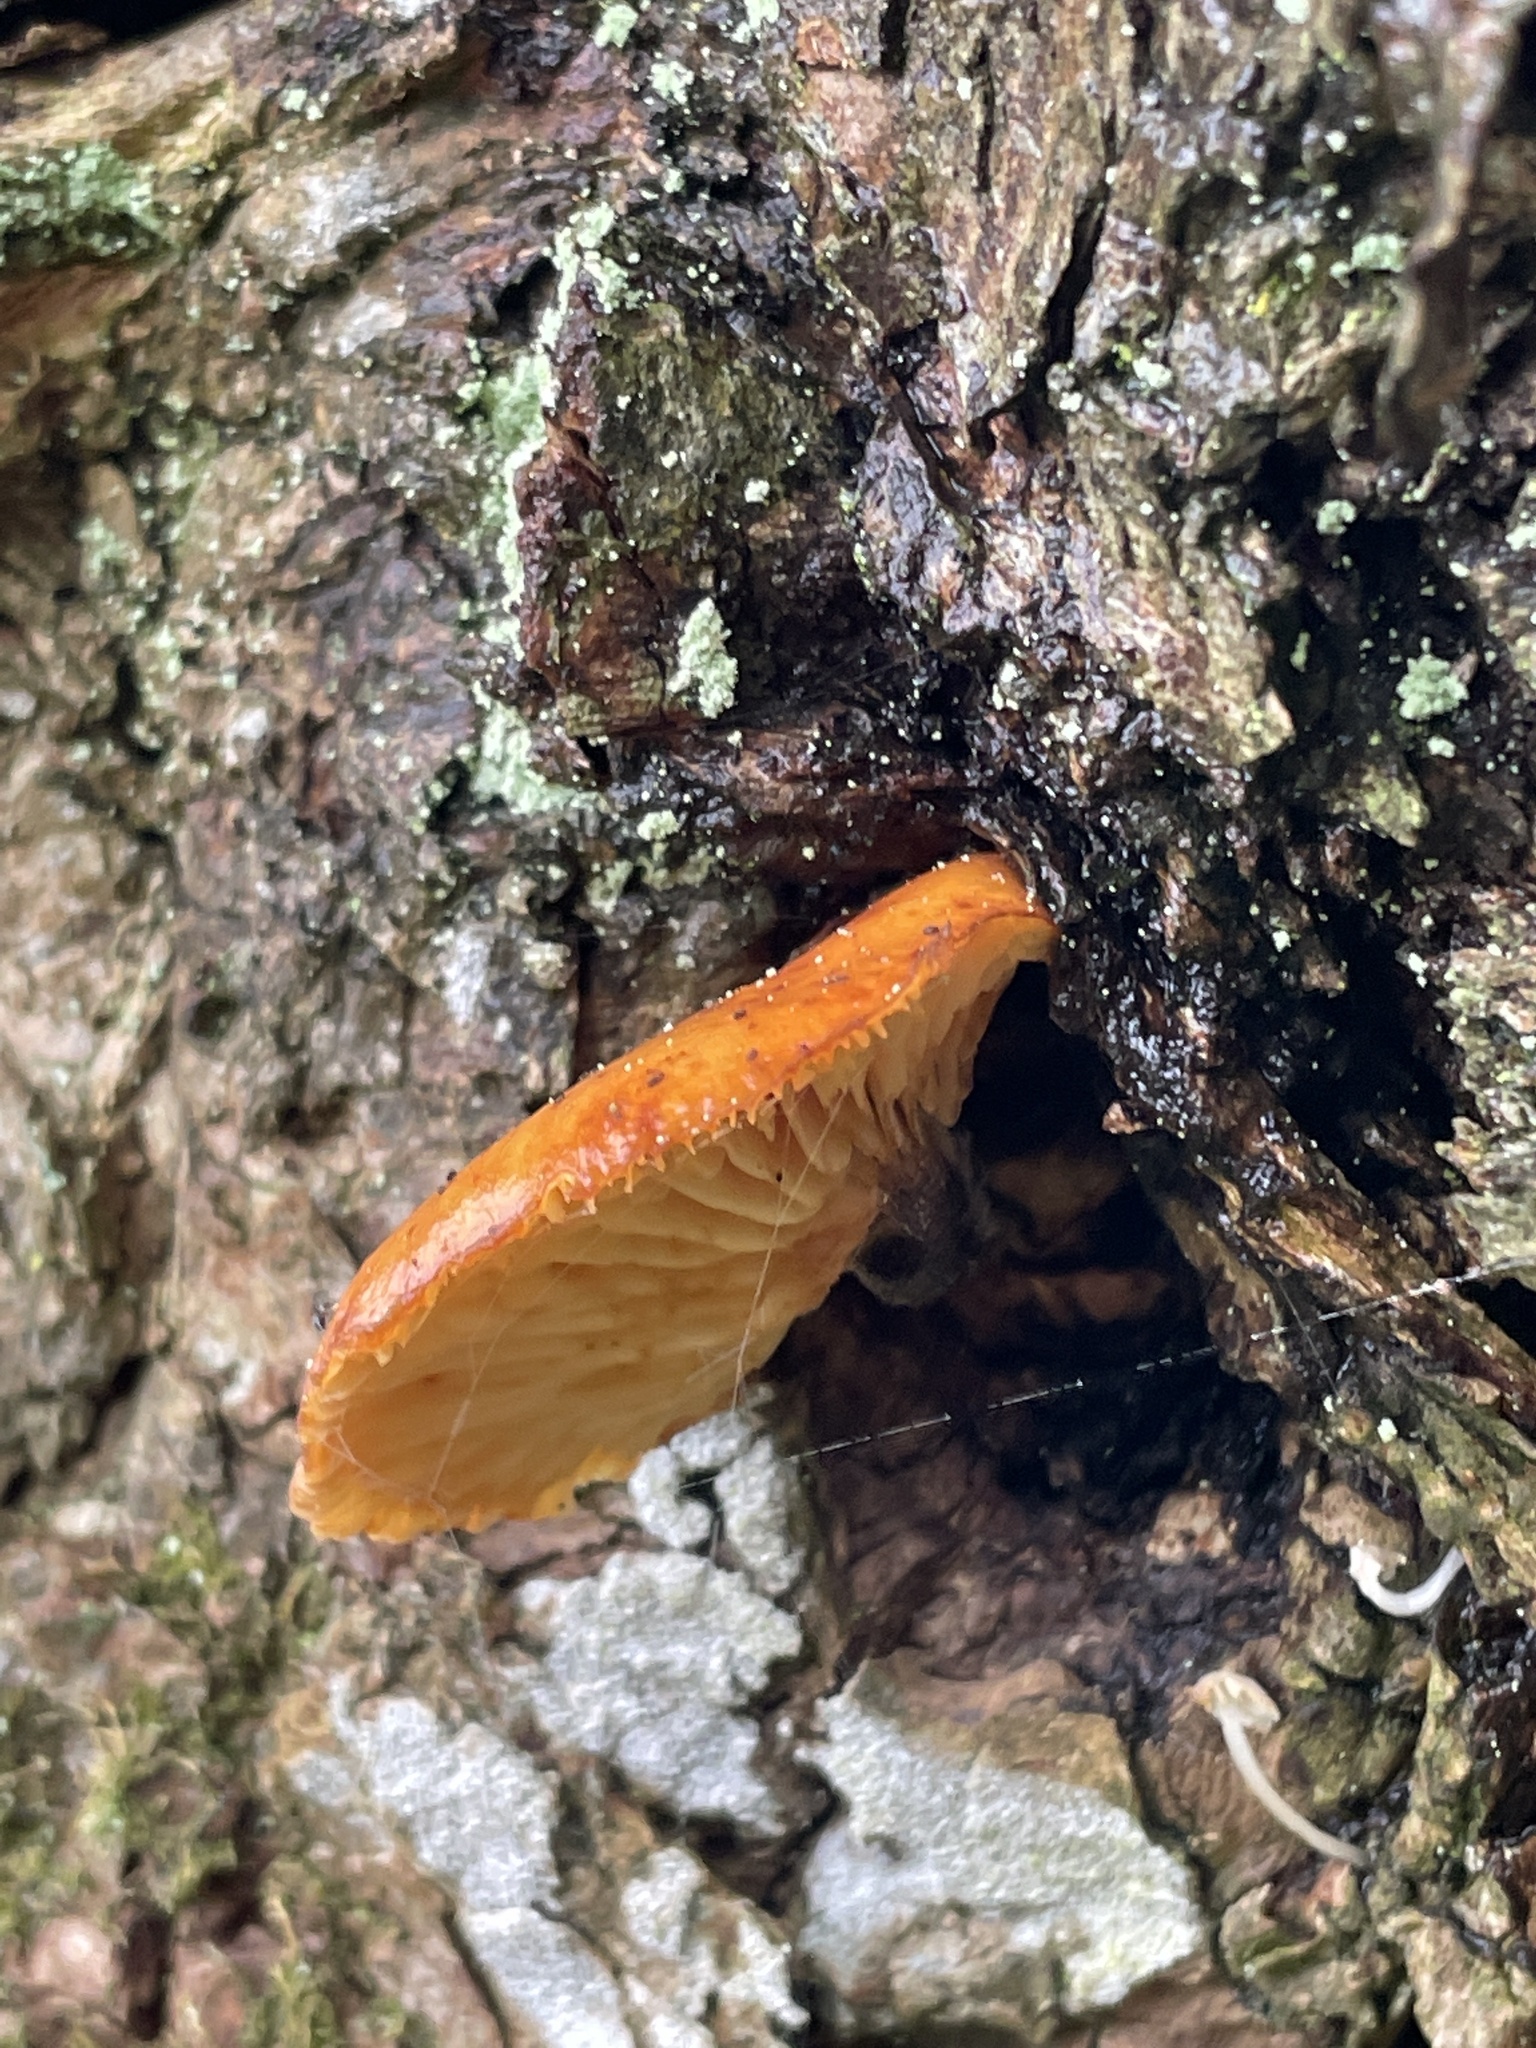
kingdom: Fungi
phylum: Basidiomycota
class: Agaricomycetes
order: Agaricales
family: Physalacriaceae
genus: Flammulina
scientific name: Flammulina
